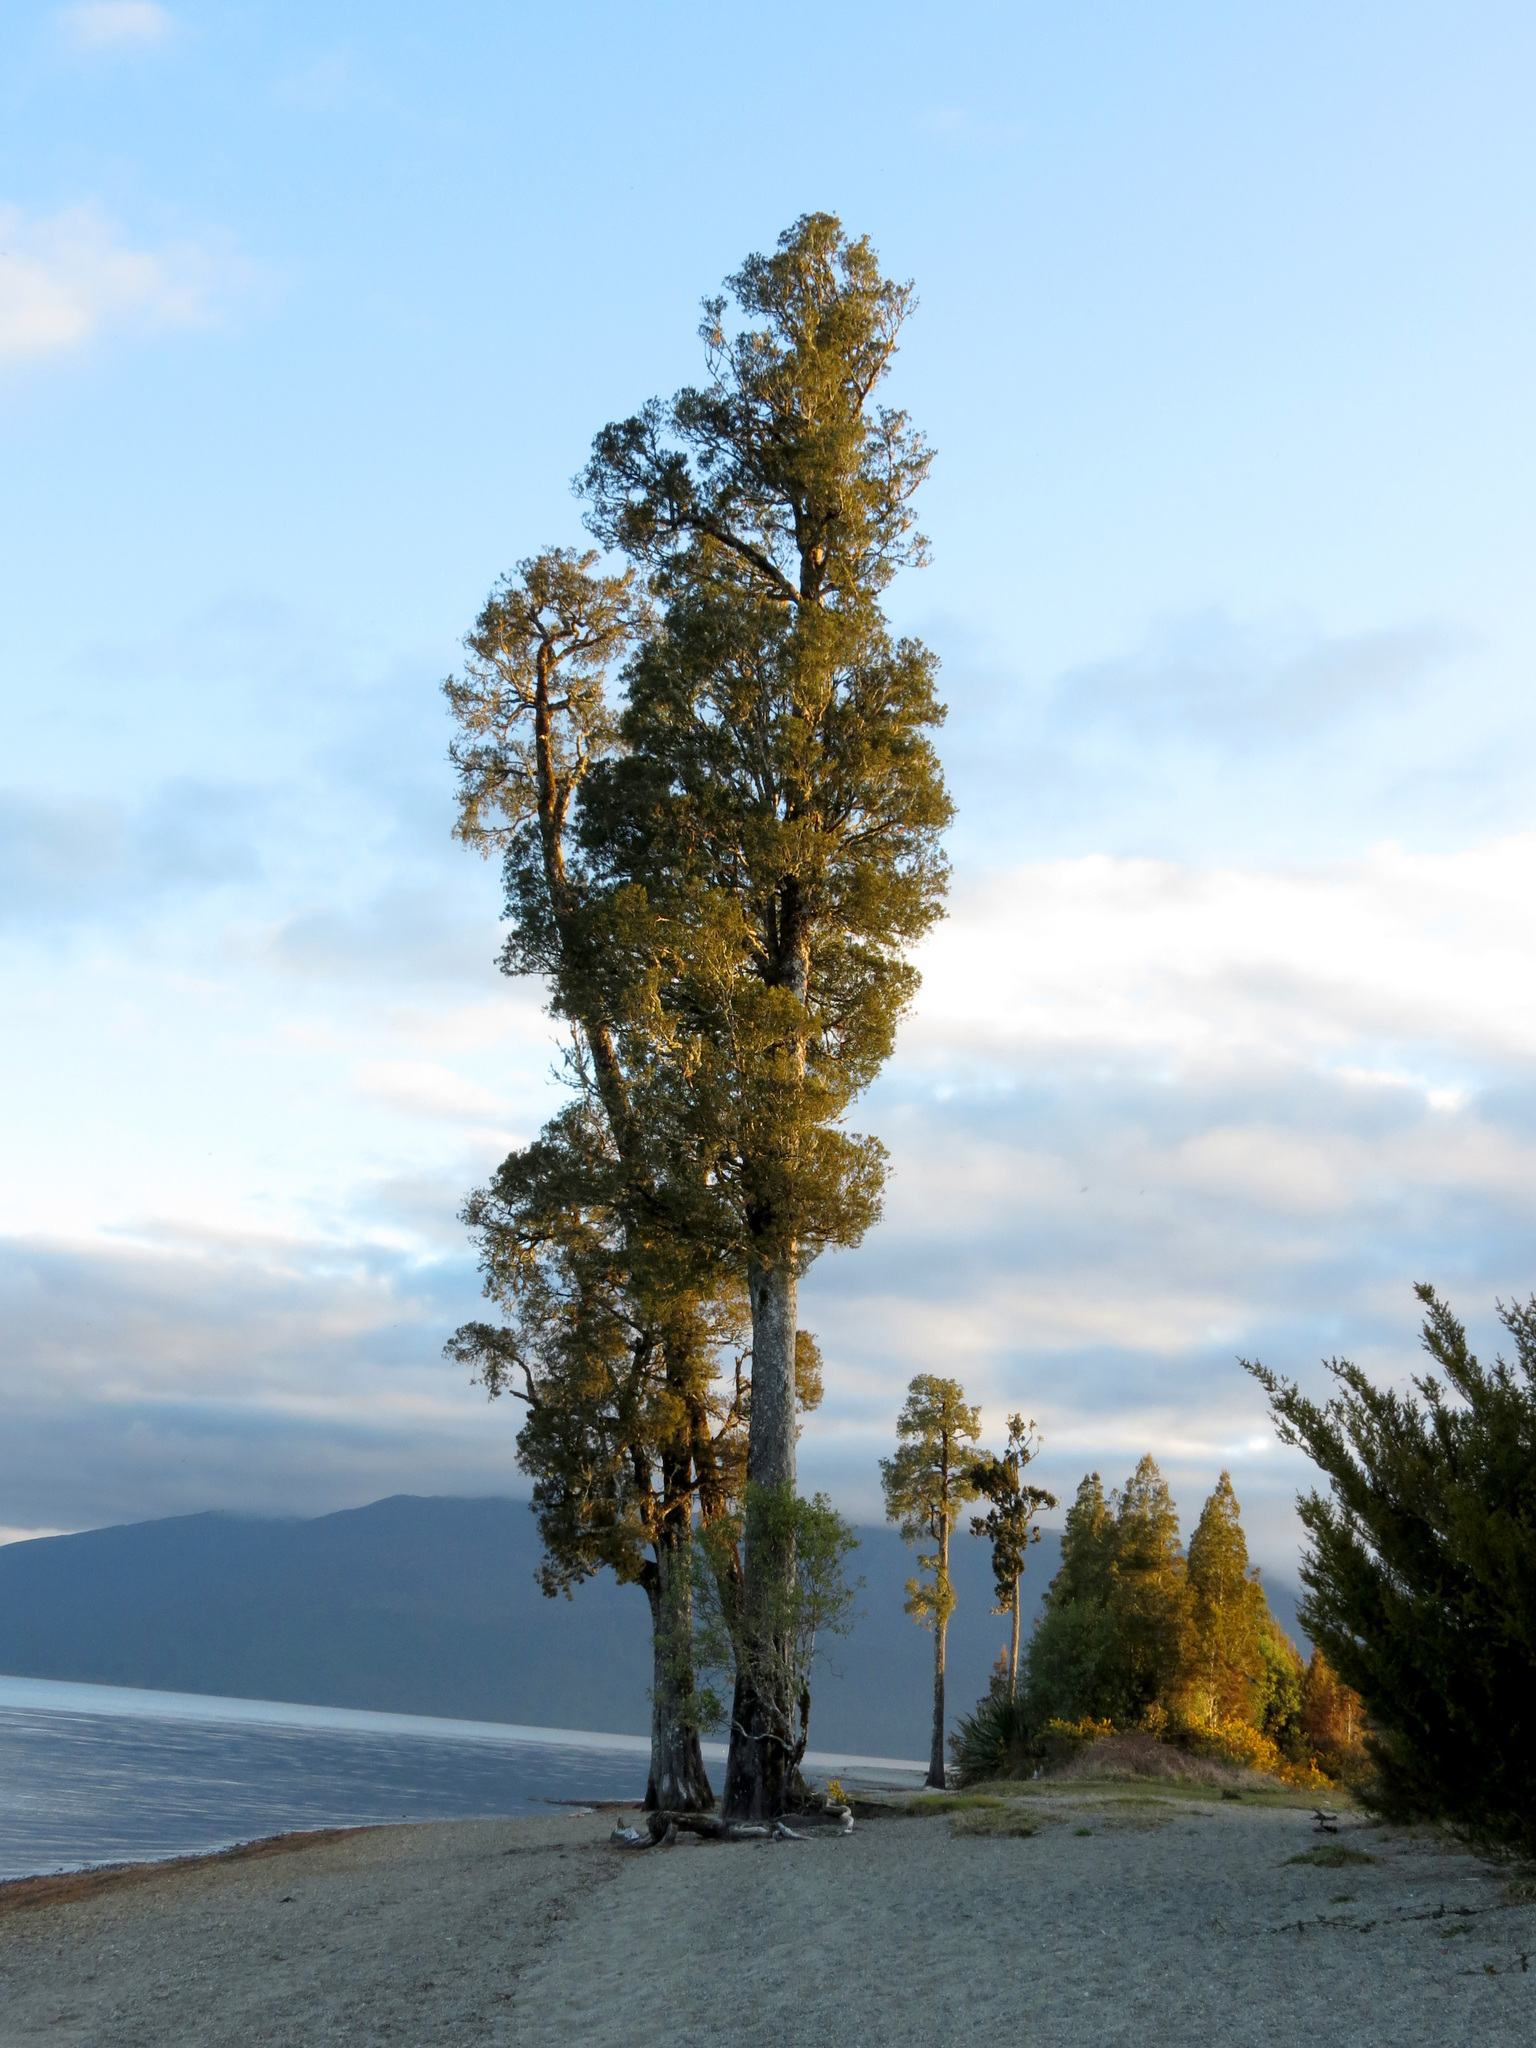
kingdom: Plantae
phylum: Tracheophyta
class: Pinopsida
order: Pinales
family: Podocarpaceae
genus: Dacrycarpus
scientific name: Dacrycarpus dacrydioides
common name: White pine
